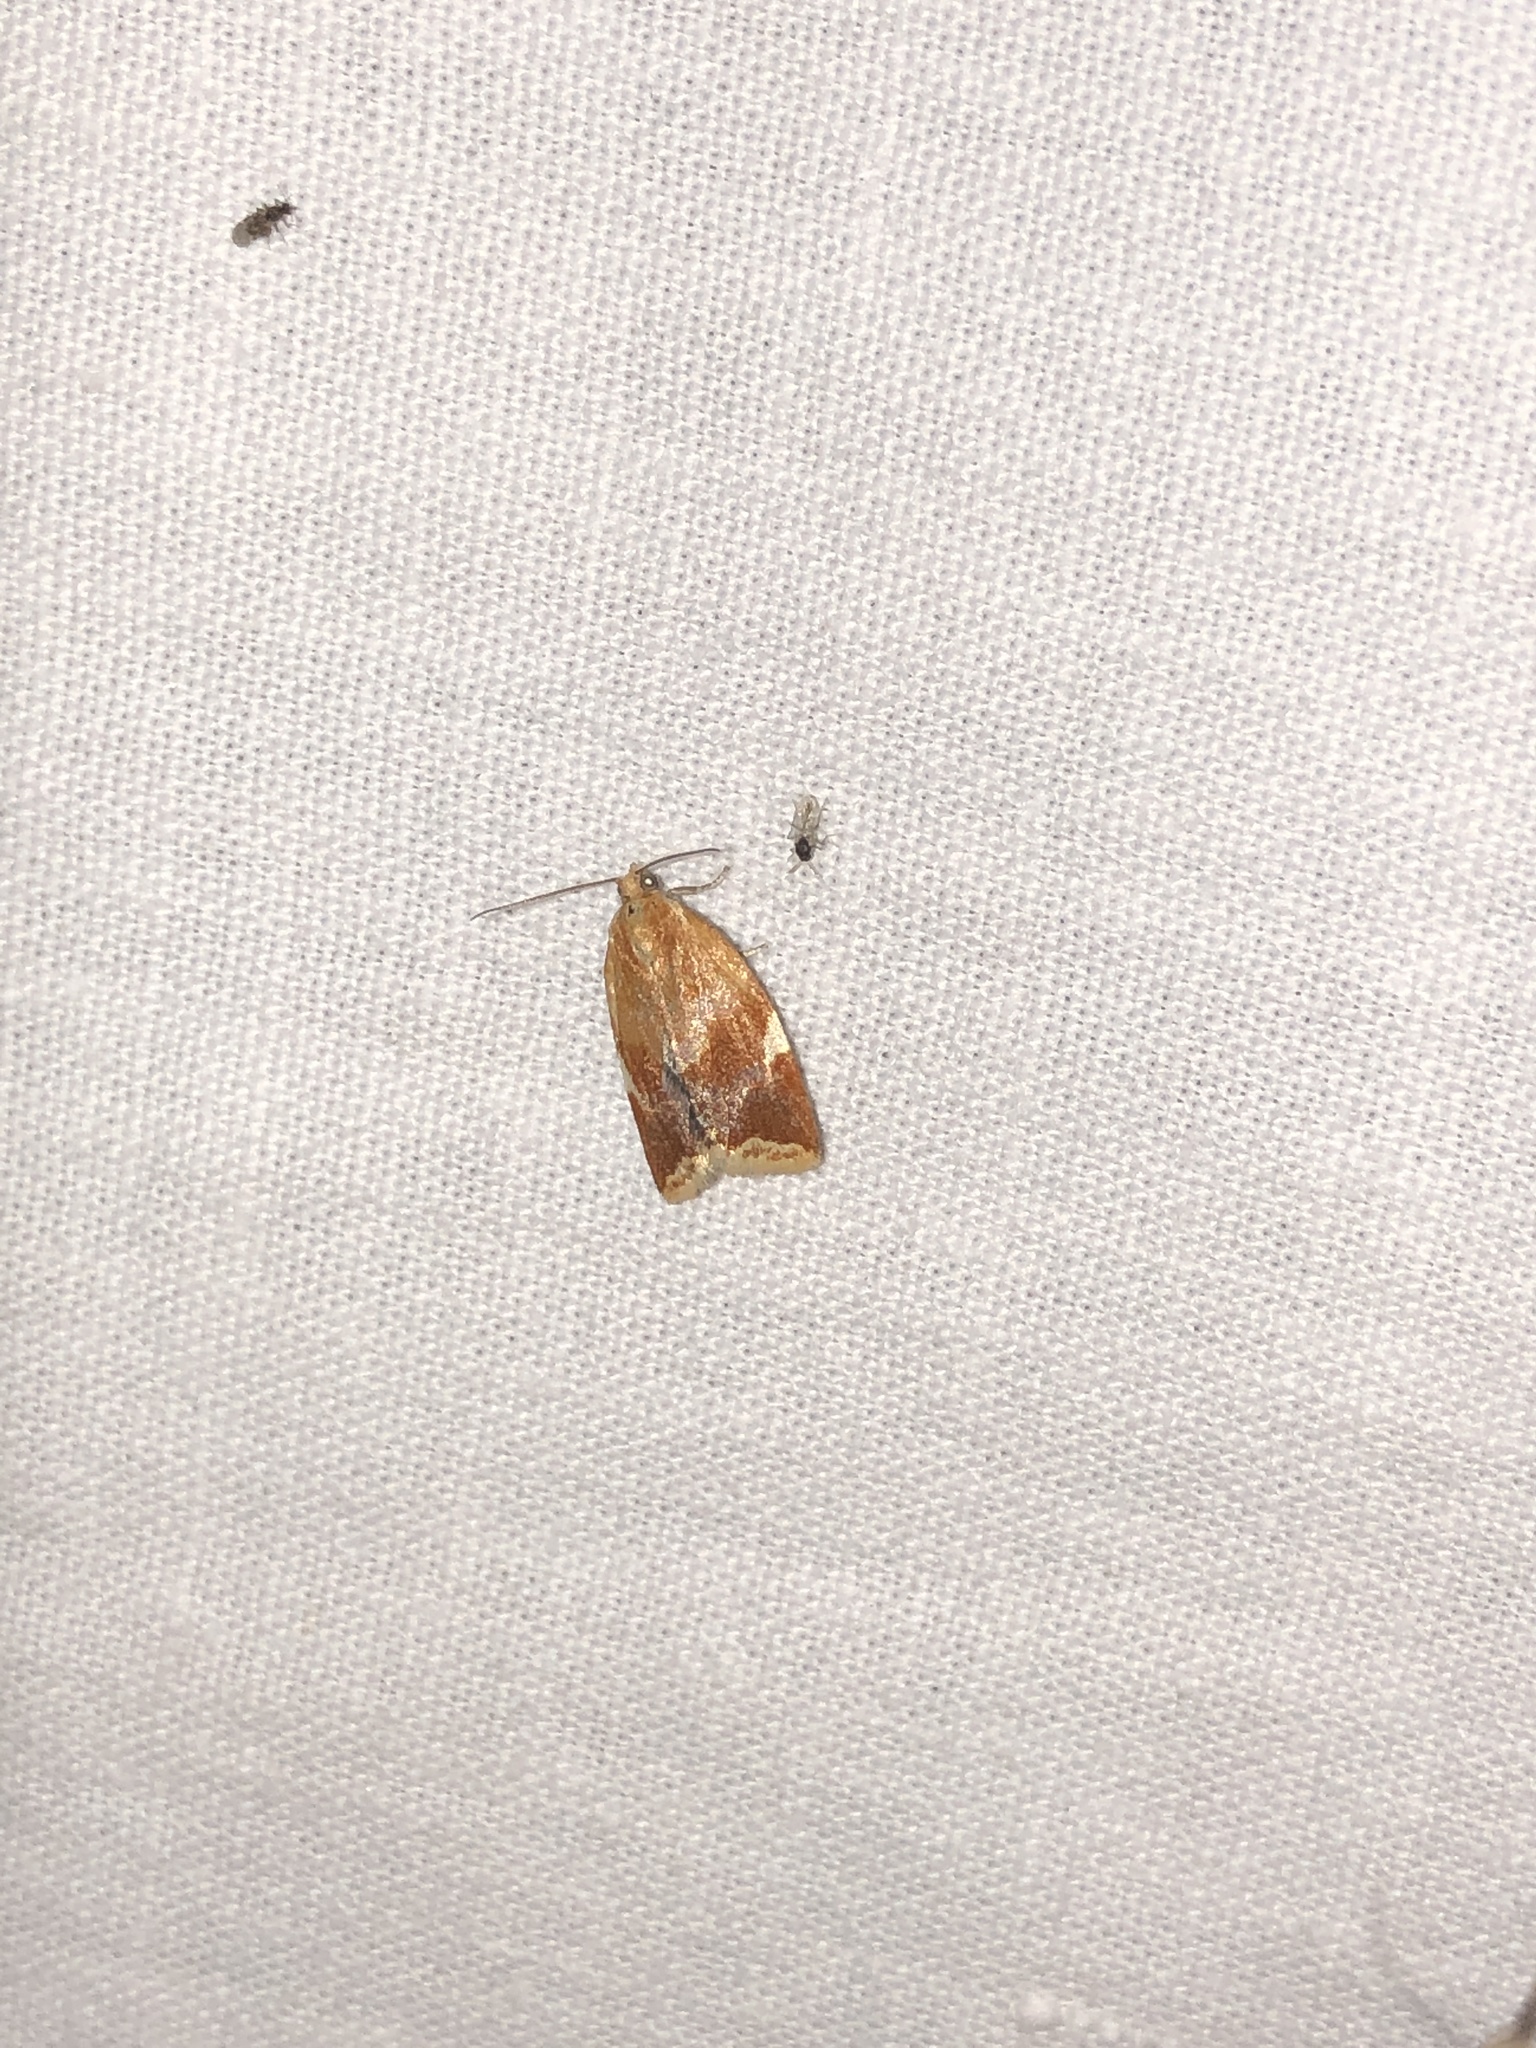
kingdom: Animalia
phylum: Arthropoda
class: Insecta
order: Lepidoptera
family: Tortricidae
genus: Clepsis
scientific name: Clepsis persicana
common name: White triangle tortrix
